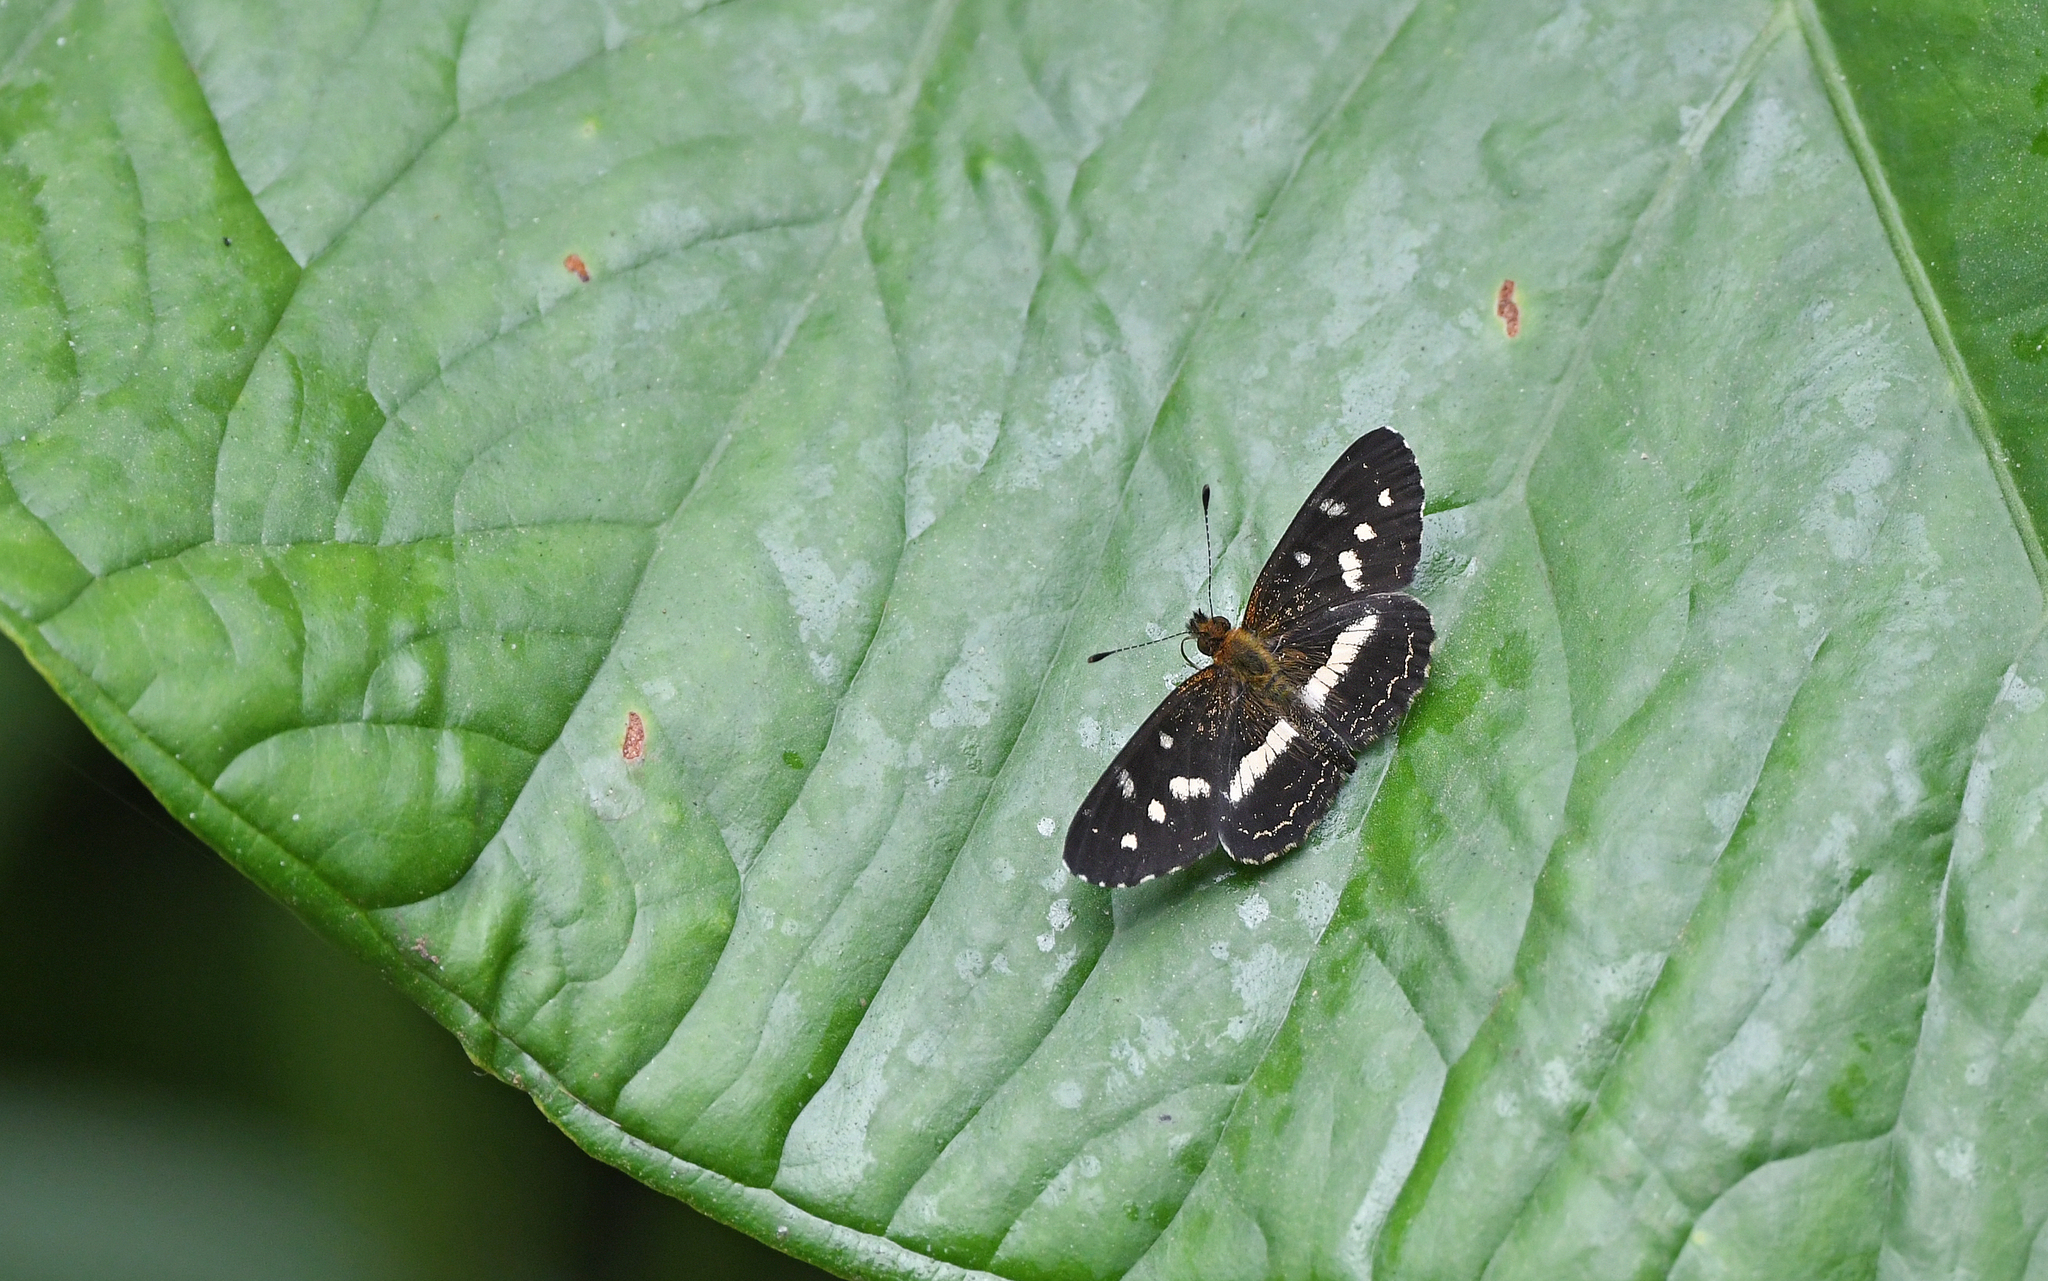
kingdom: Animalia
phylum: Arthropoda
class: Insecta
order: Lepidoptera
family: Nymphalidae
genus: Dagon
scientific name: Dagon pusilla
